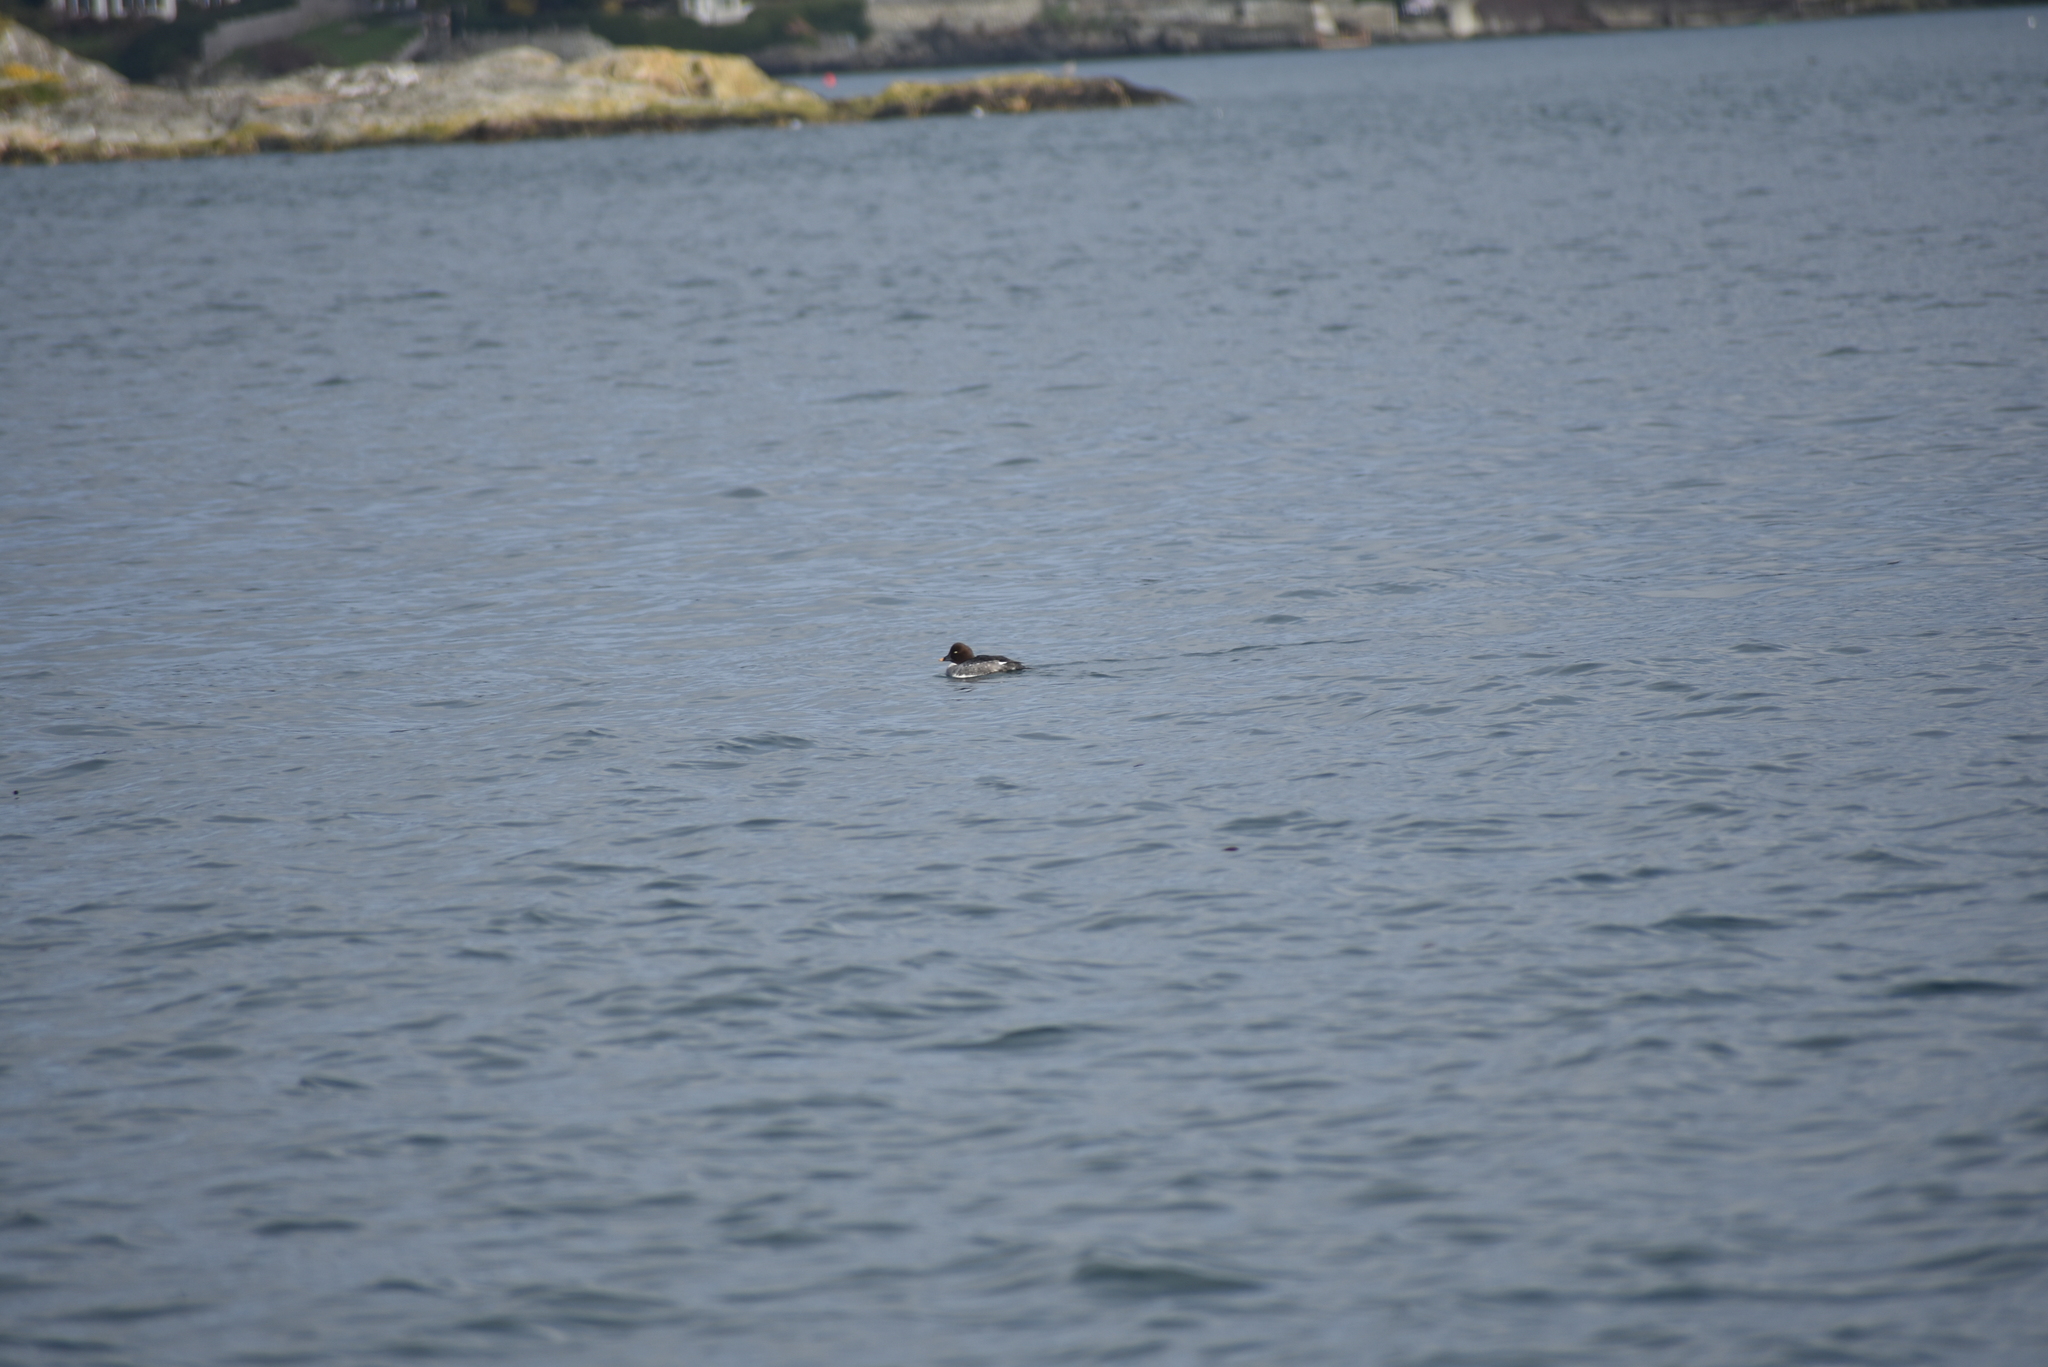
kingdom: Animalia
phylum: Chordata
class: Aves
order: Anseriformes
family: Anatidae
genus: Bucephala
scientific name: Bucephala clangula
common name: Common goldeneye
